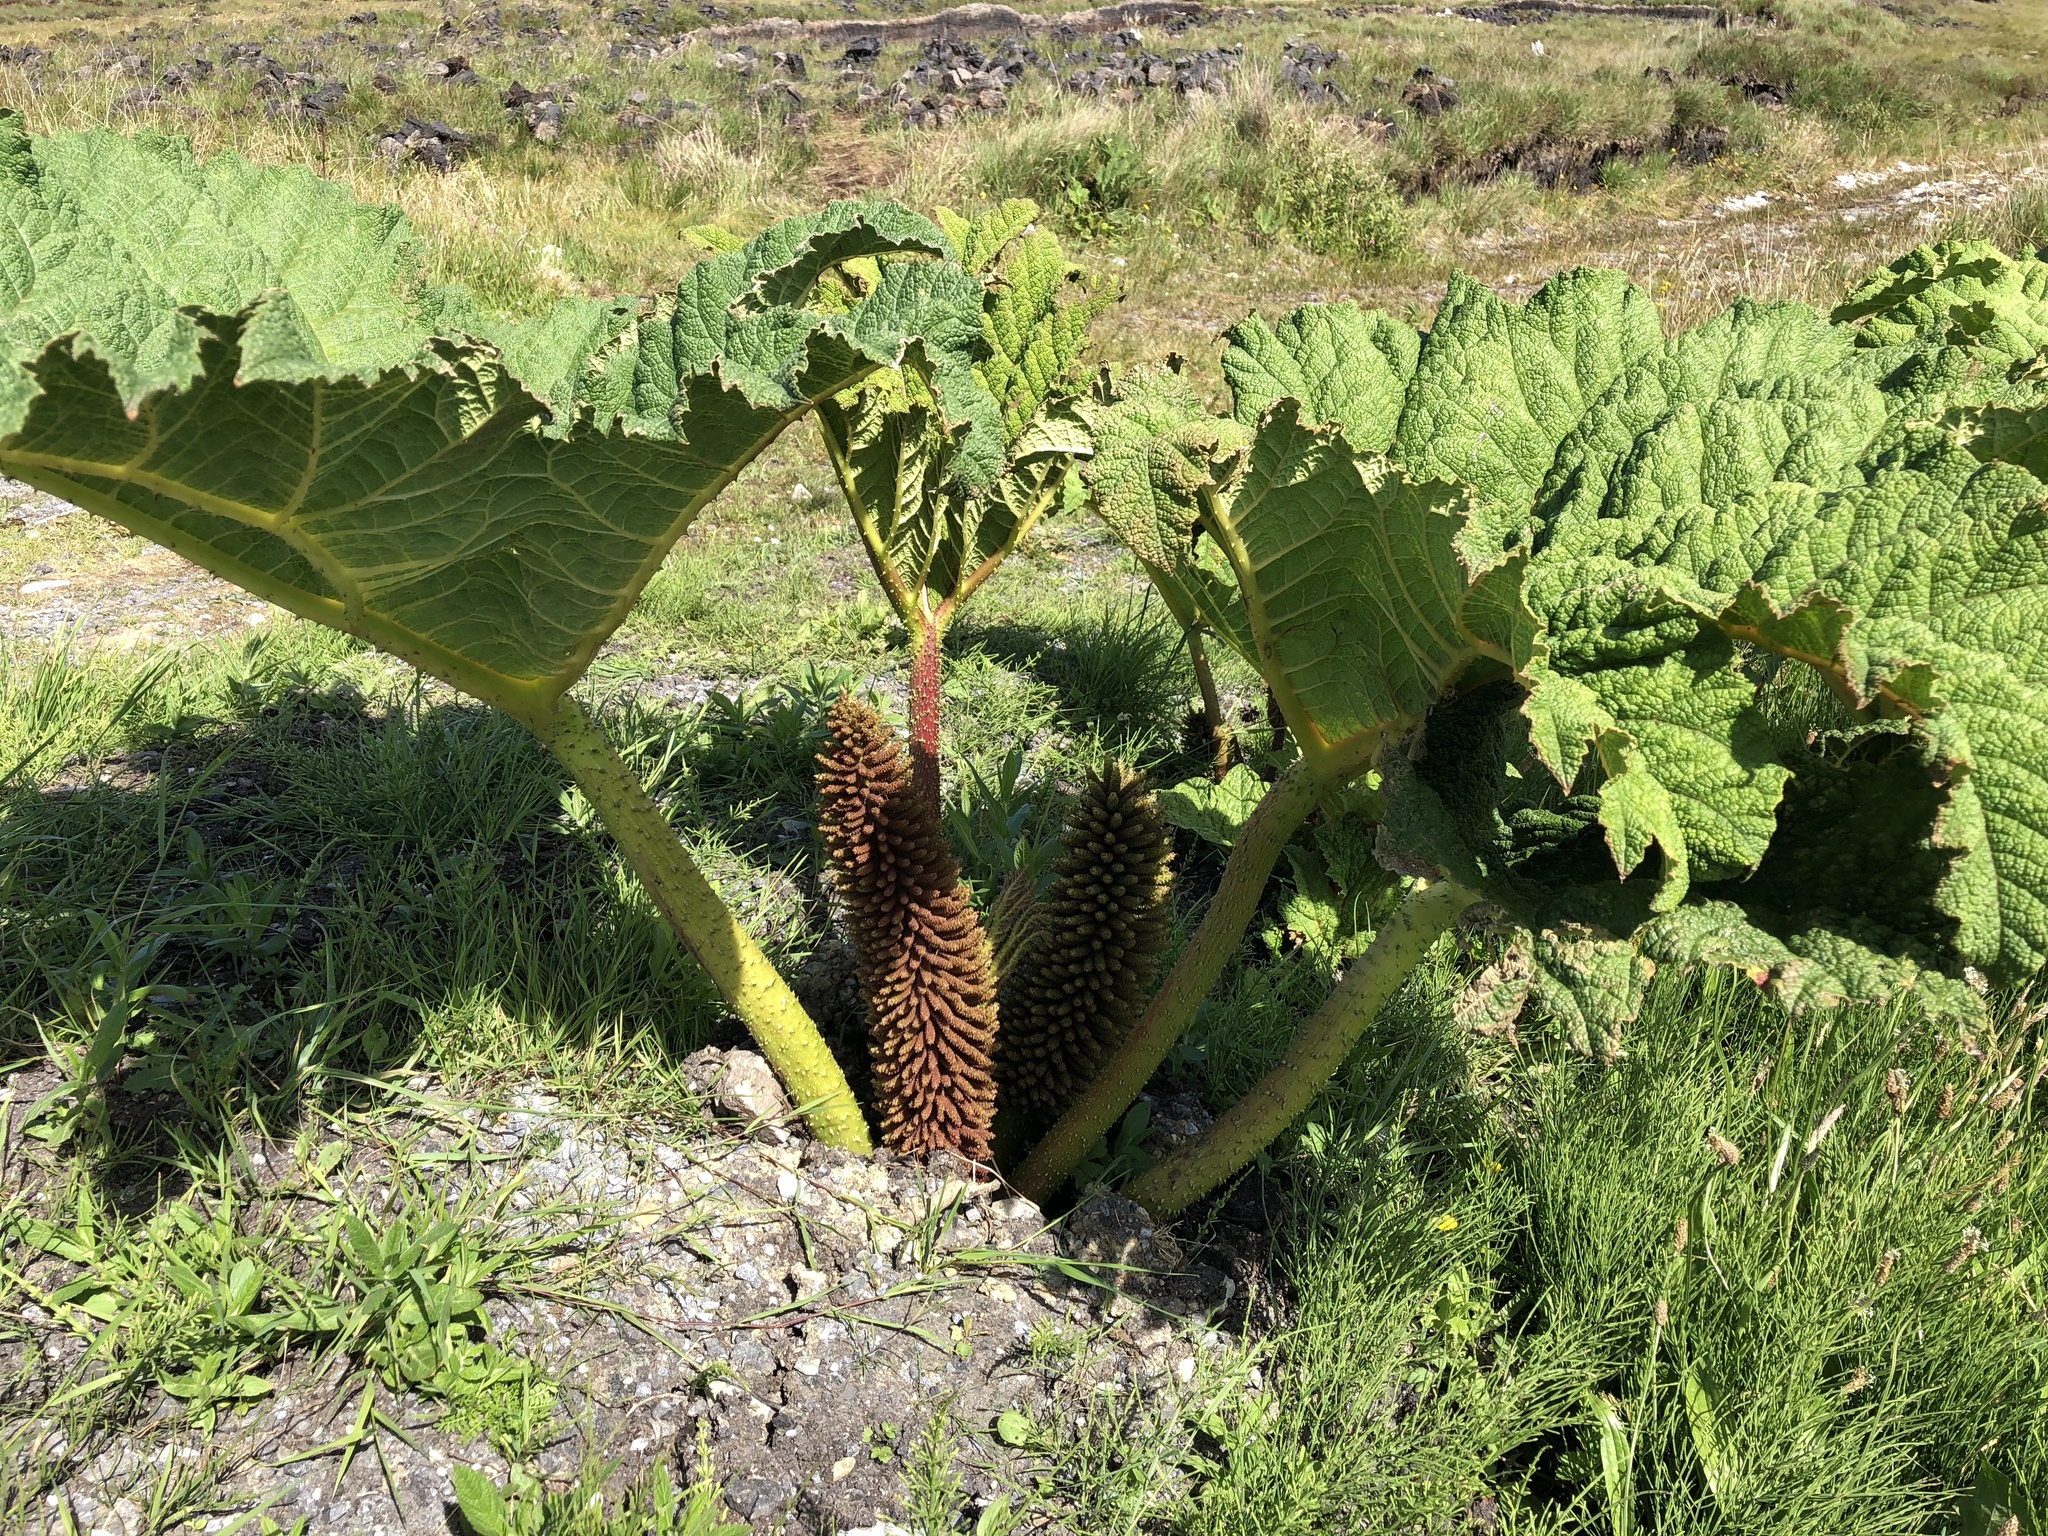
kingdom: Plantae
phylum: Tracheophyta
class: Magnoliopsida
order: Gunnerales
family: Gunneraceae
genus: Gunnera
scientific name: Gunnera tinctoria
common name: Giant-rhubarb
